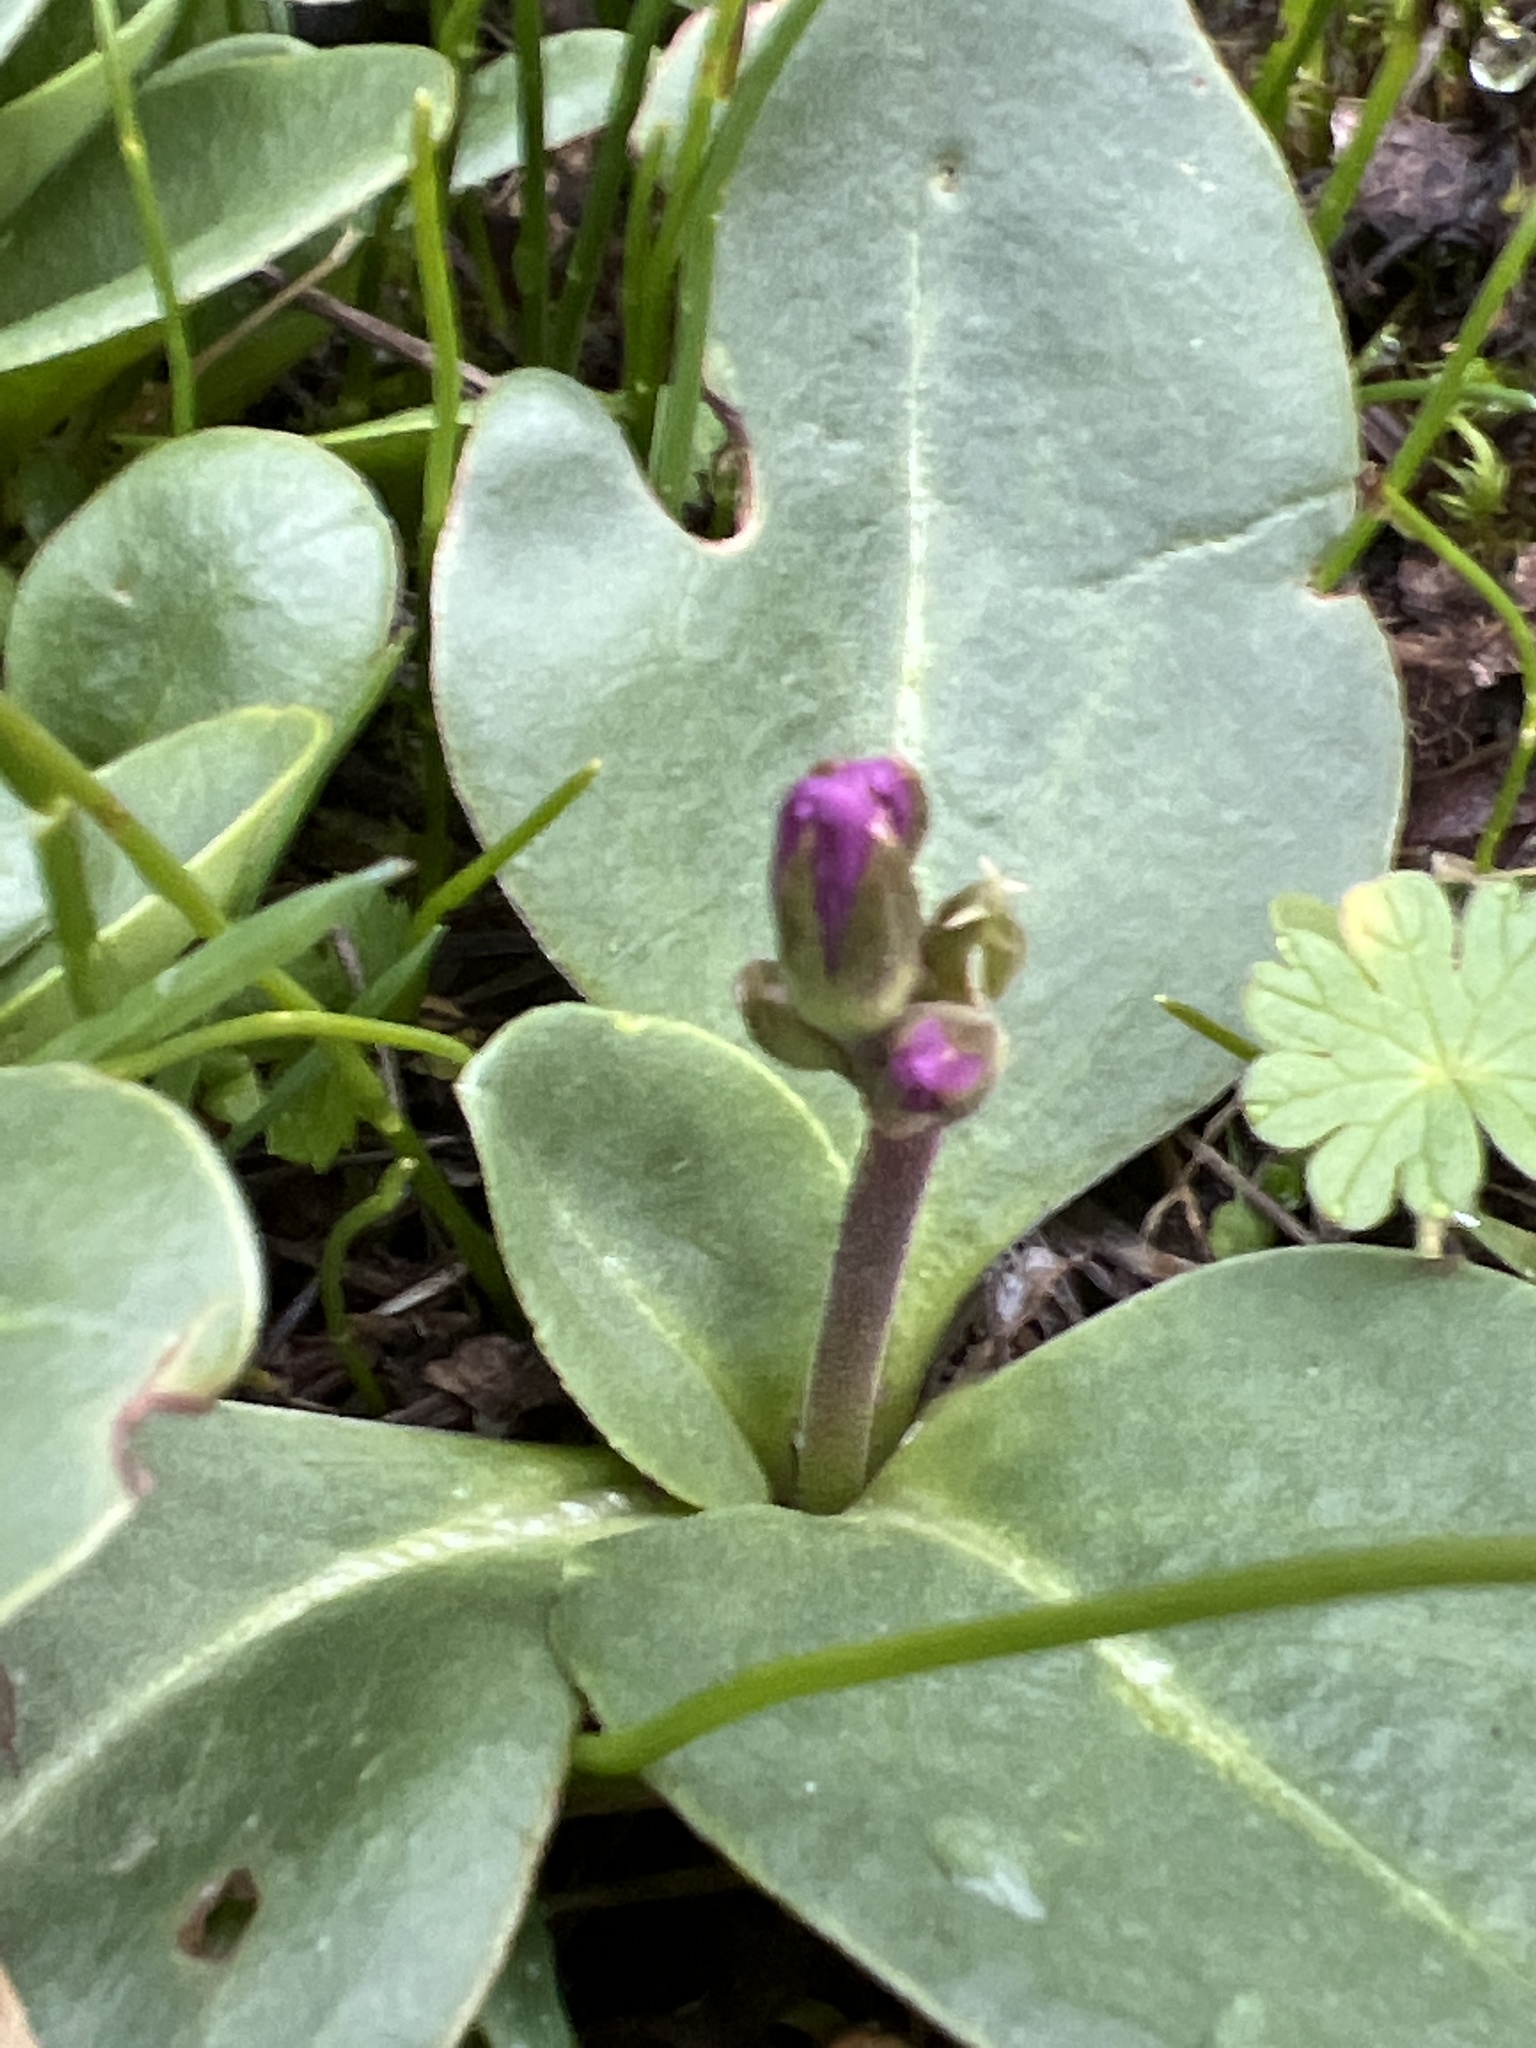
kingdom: Plantae
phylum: Tracheophyta
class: Magnoliopsida
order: Ericales
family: Primulaceae
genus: Dodecatheon
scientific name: Dodecatheon hendersonii
